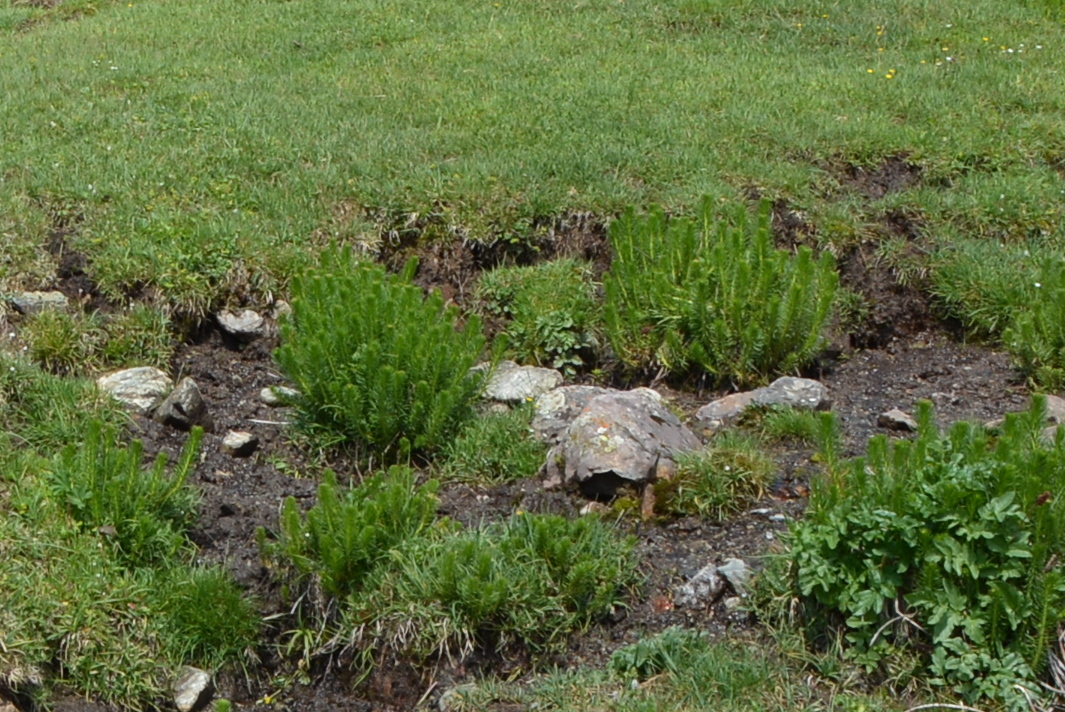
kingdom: Plantae
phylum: Tracheophyta
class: Magnoliopsida
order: Saxifragales
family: Crassulaceae
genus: Rhodiola
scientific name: Rhodiola semenovii
